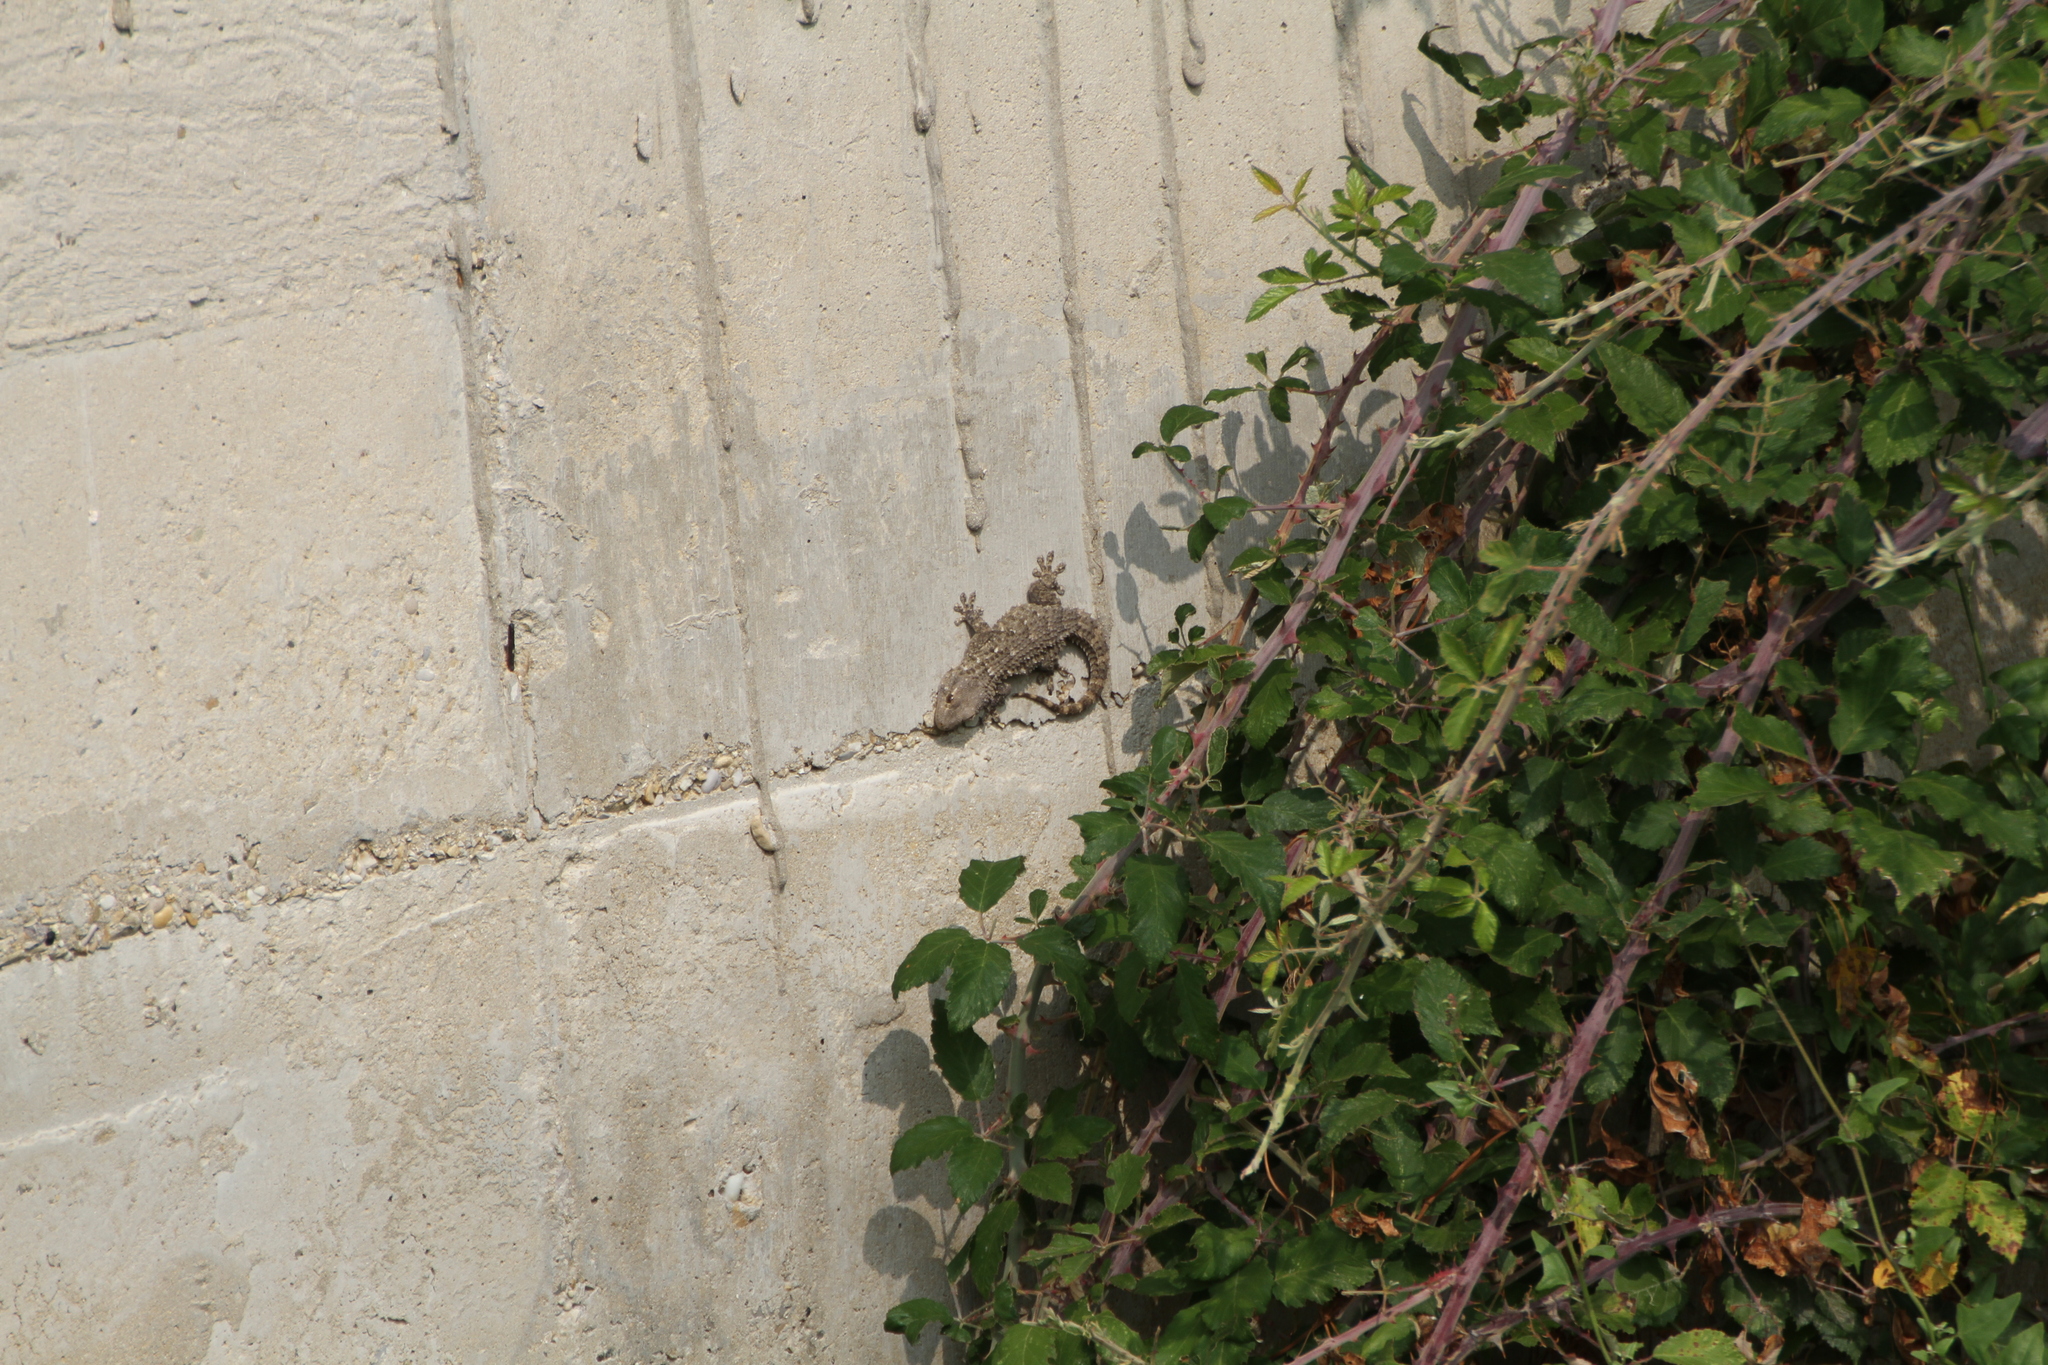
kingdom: Animalia
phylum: Chordata
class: Squamata
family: Phyllodactylidae
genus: Tarentola
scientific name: Tarentola mauritanica
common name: Moorish gecko
